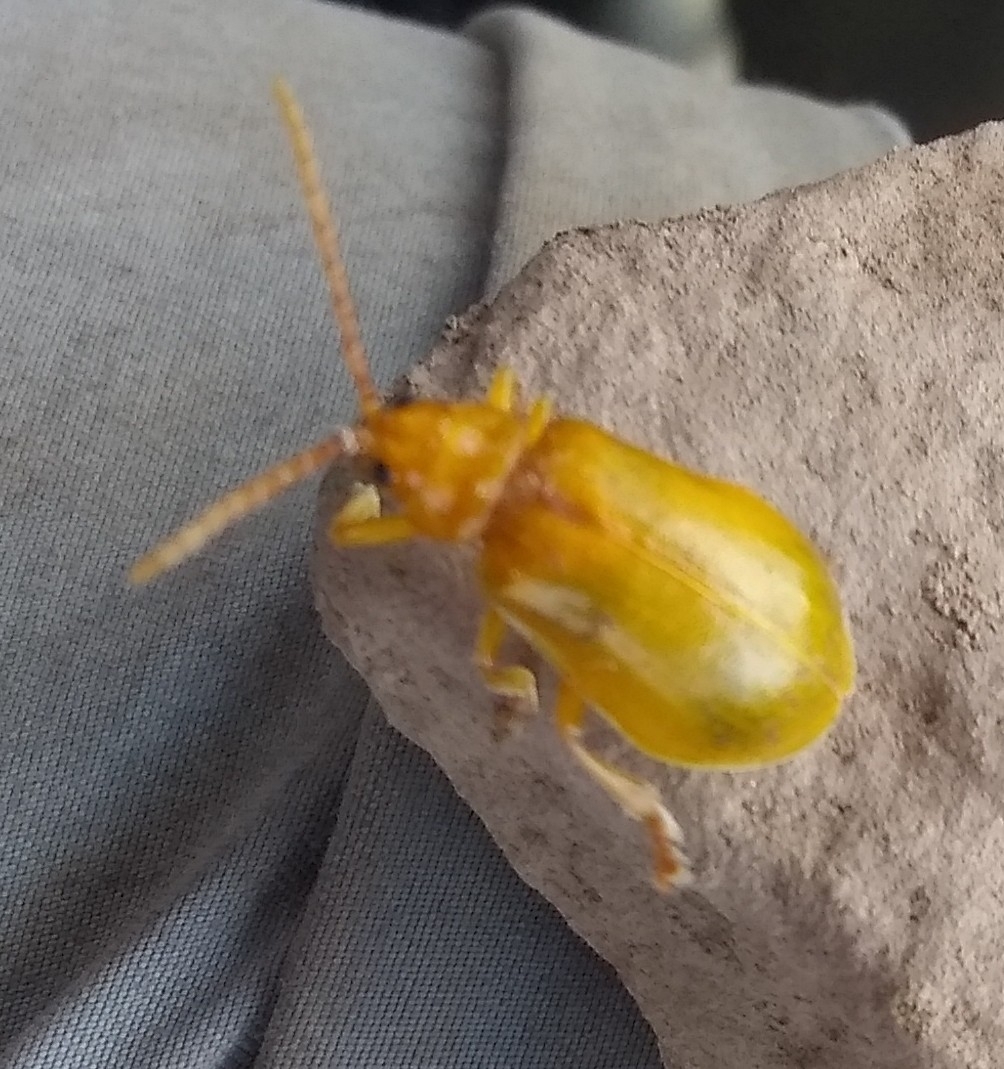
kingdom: Animalia
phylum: Arthropoda
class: Insecta
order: Coleoptera
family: Chrysomelidae
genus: Monocesta
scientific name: Monocesta coryli
